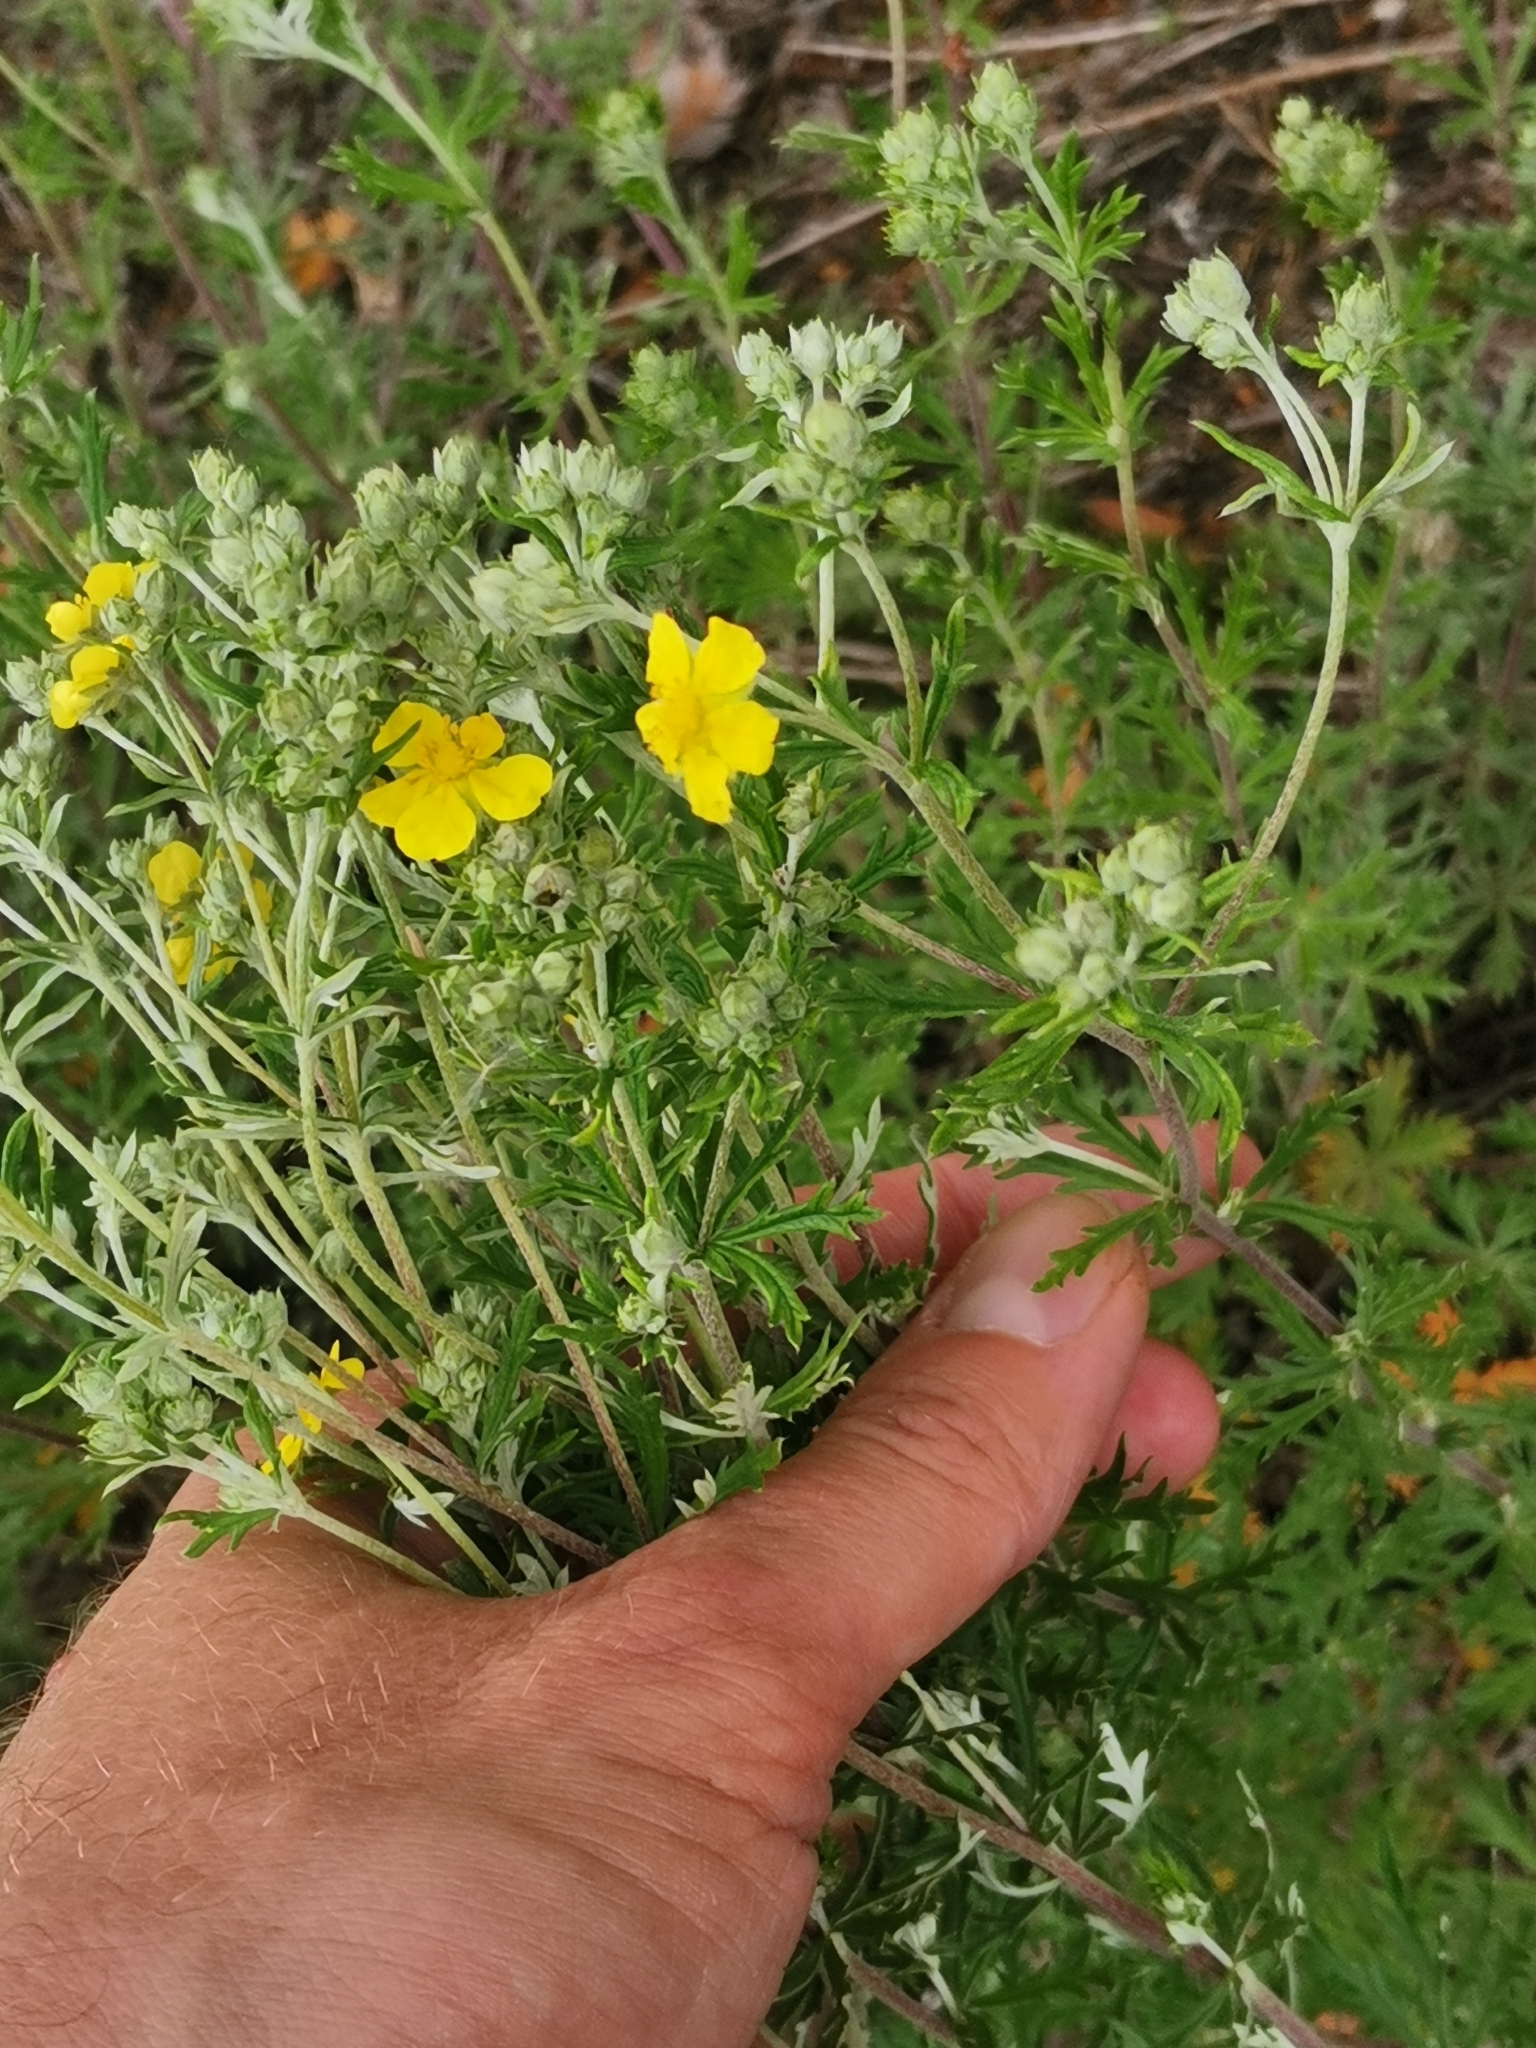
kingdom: Plantae
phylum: Tracheophyta
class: Magnoliopsida
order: Rosales
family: Rosaceae
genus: Potentilla
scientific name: Potentilla argentea
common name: Hoary cinquefoil
